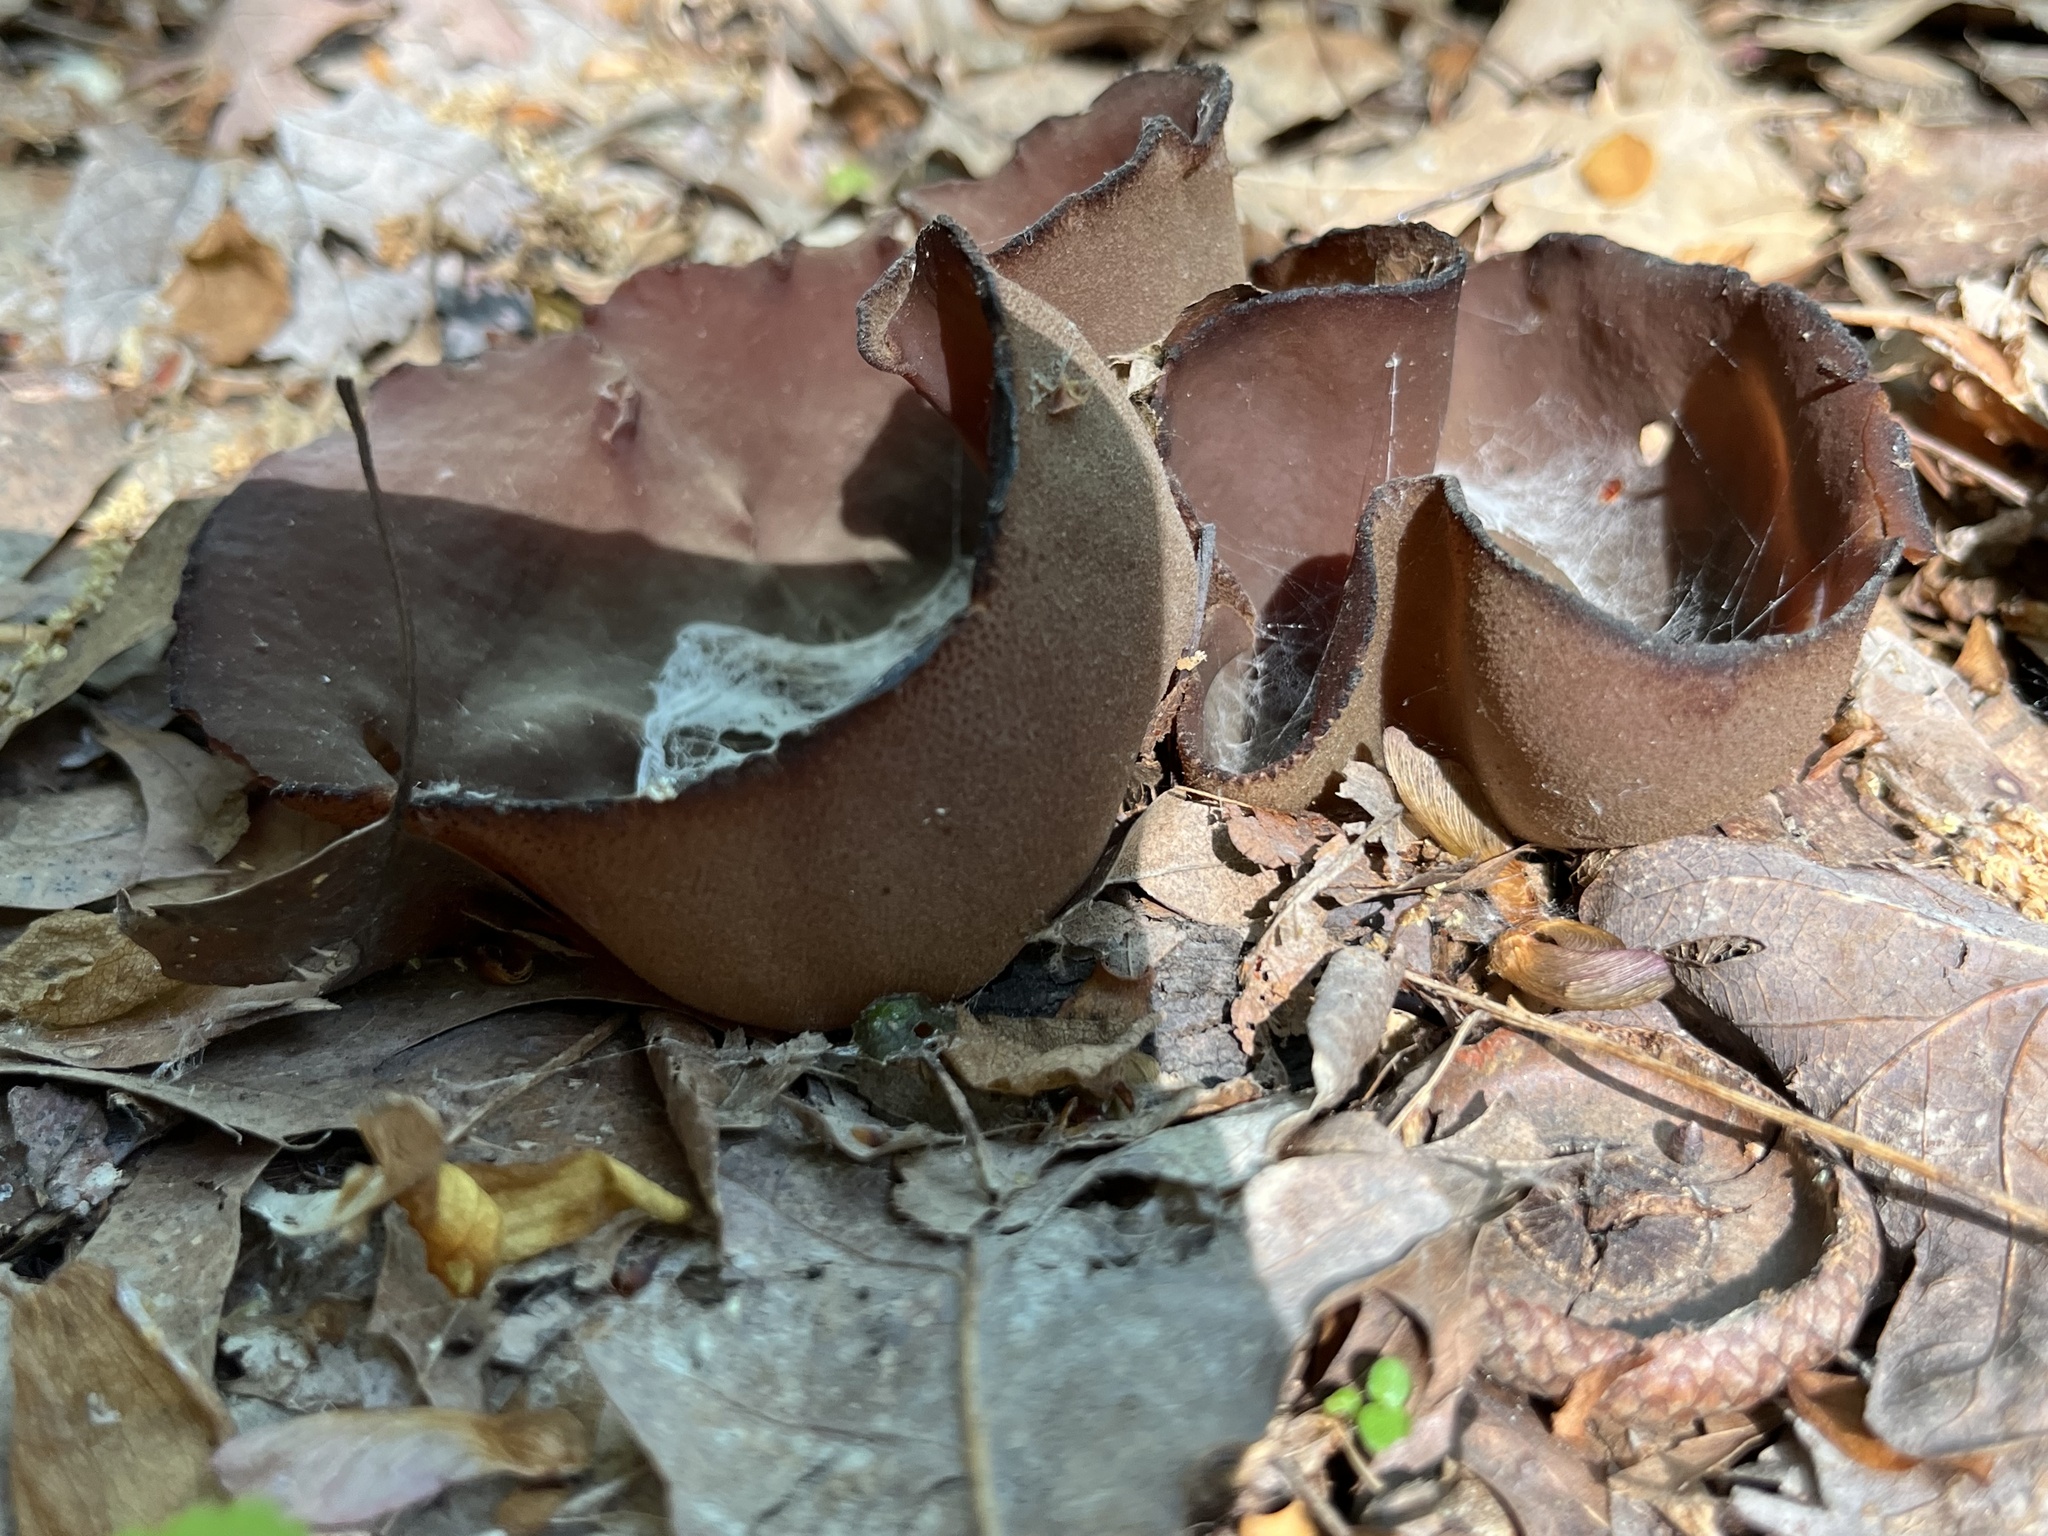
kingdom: Fungi
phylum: Ascomycota
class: Pezizomycetes
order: Pezizales
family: Pezizaceae
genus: Phylloscypha
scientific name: Phylloscypha phyllogena
